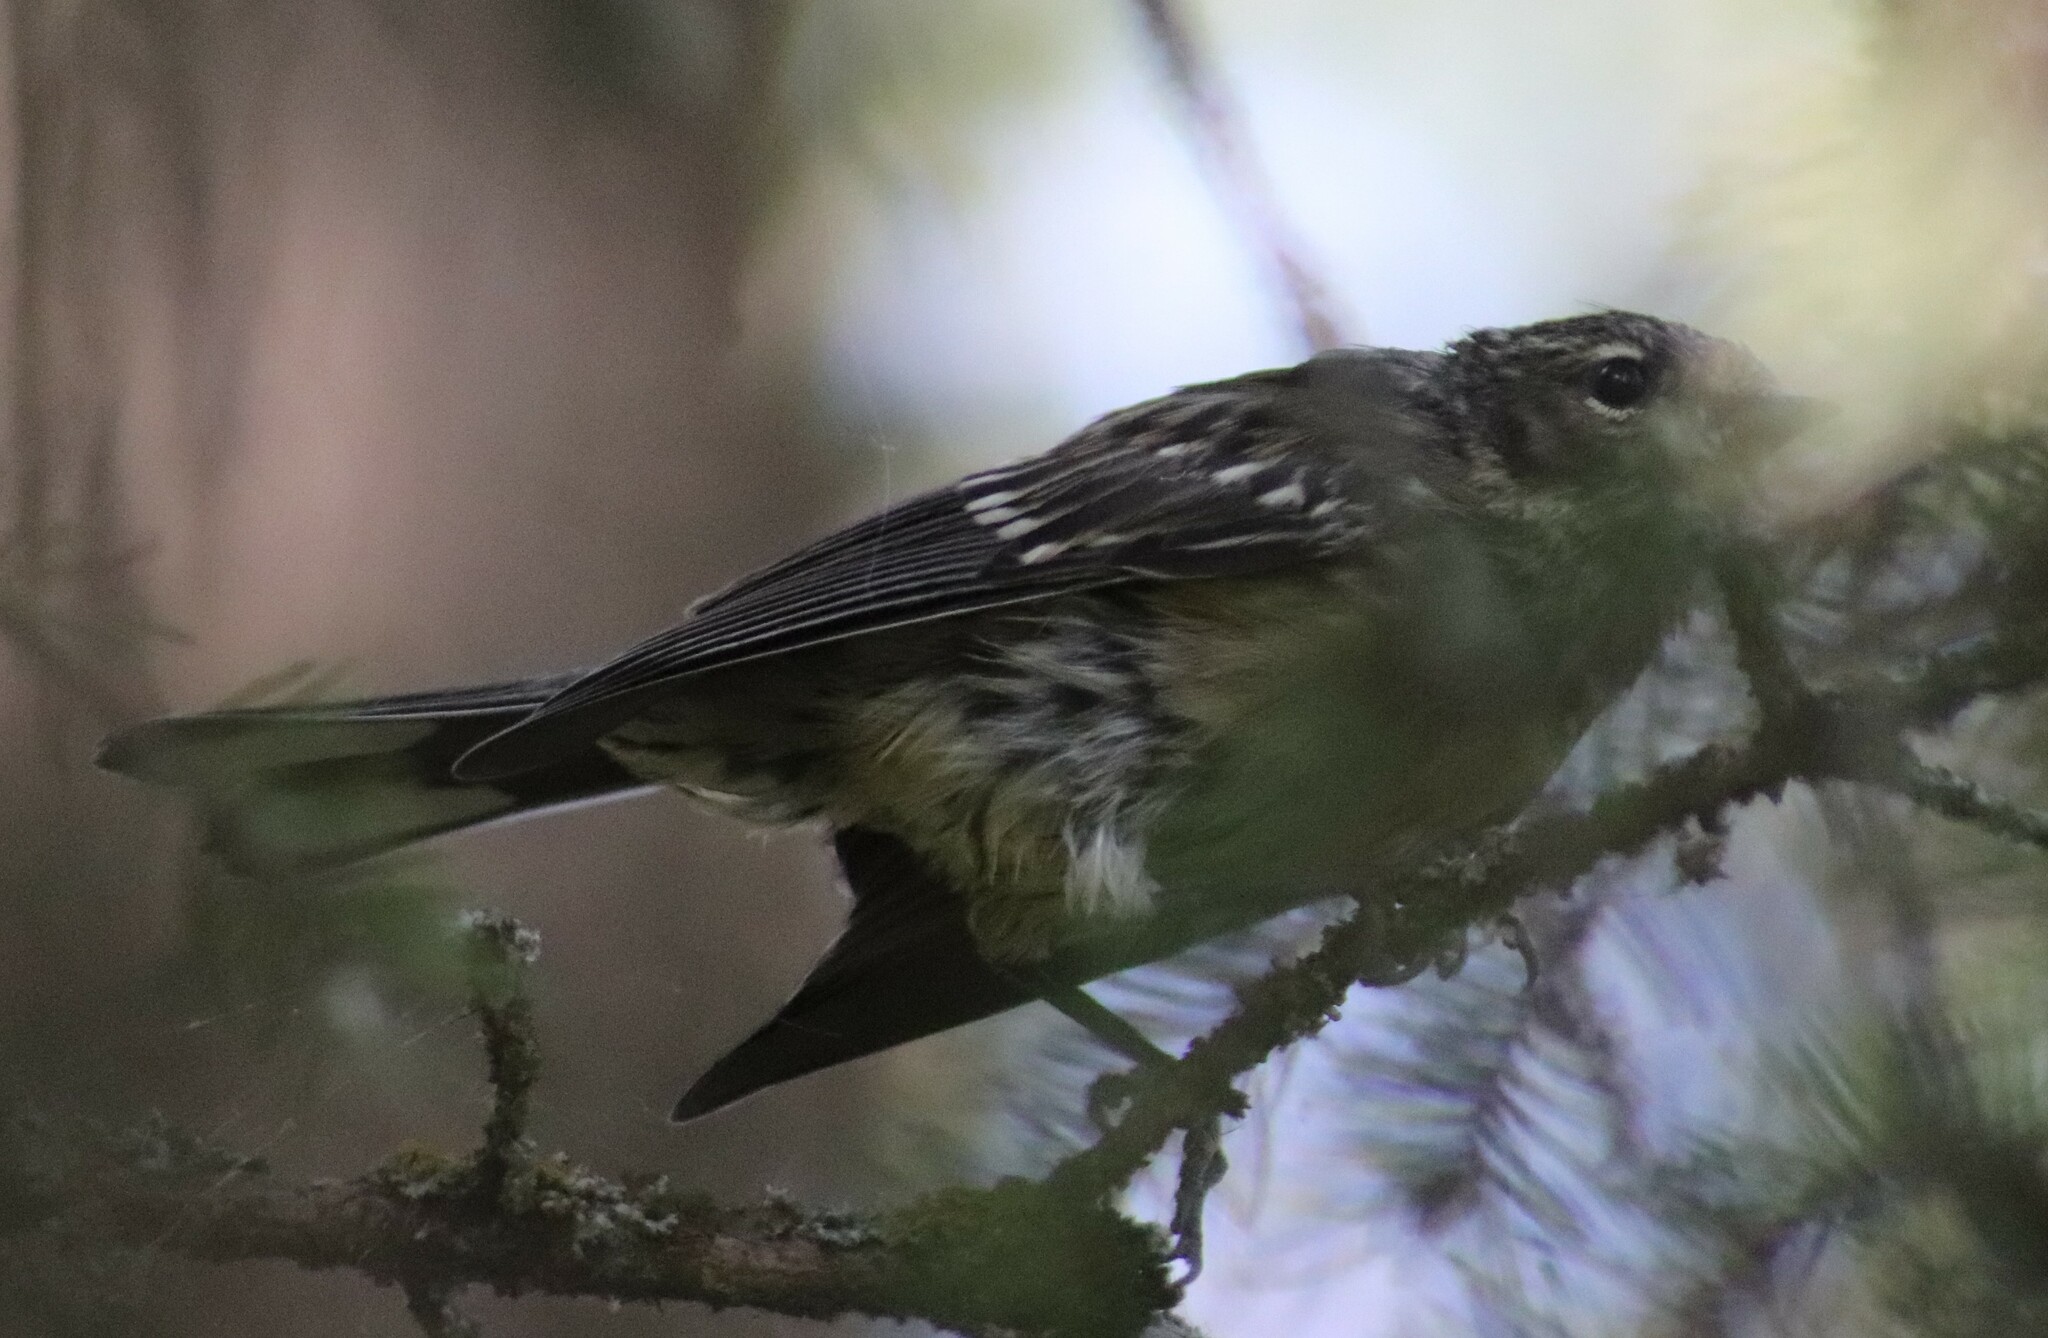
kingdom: Animalia
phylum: Chordata
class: Aves
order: Passeriformes
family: Parulidae
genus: Setophaga
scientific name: Setophaga coronata
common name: Myrtle warbler
